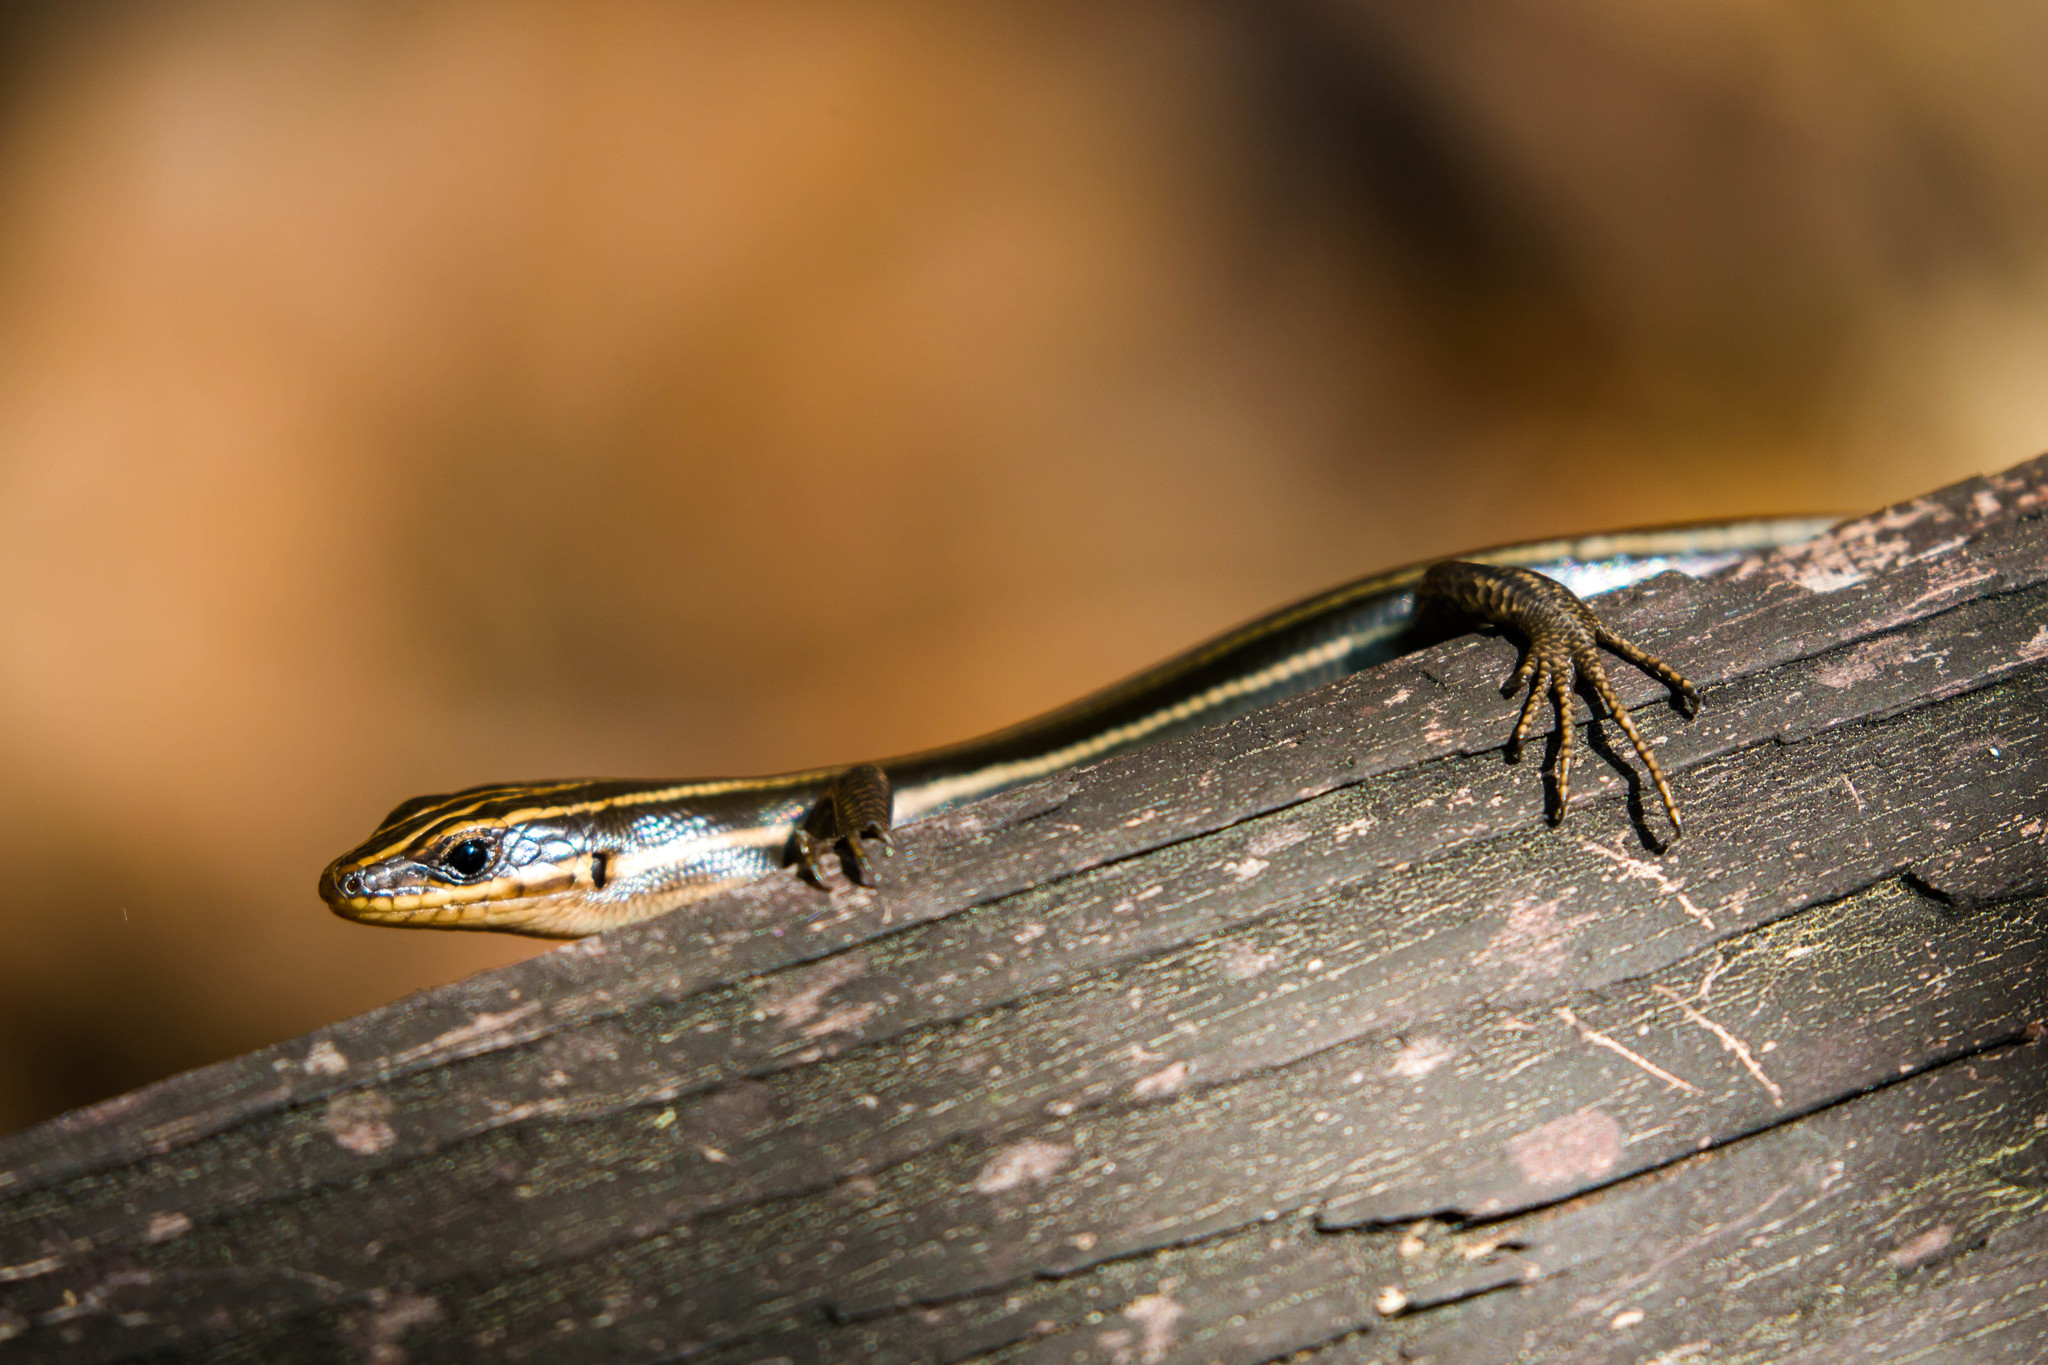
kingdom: Animalia
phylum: Chordata
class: Squamata
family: Scincidae
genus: Plestiodon
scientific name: Plestiodon fasciatus
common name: Five-lined skink
